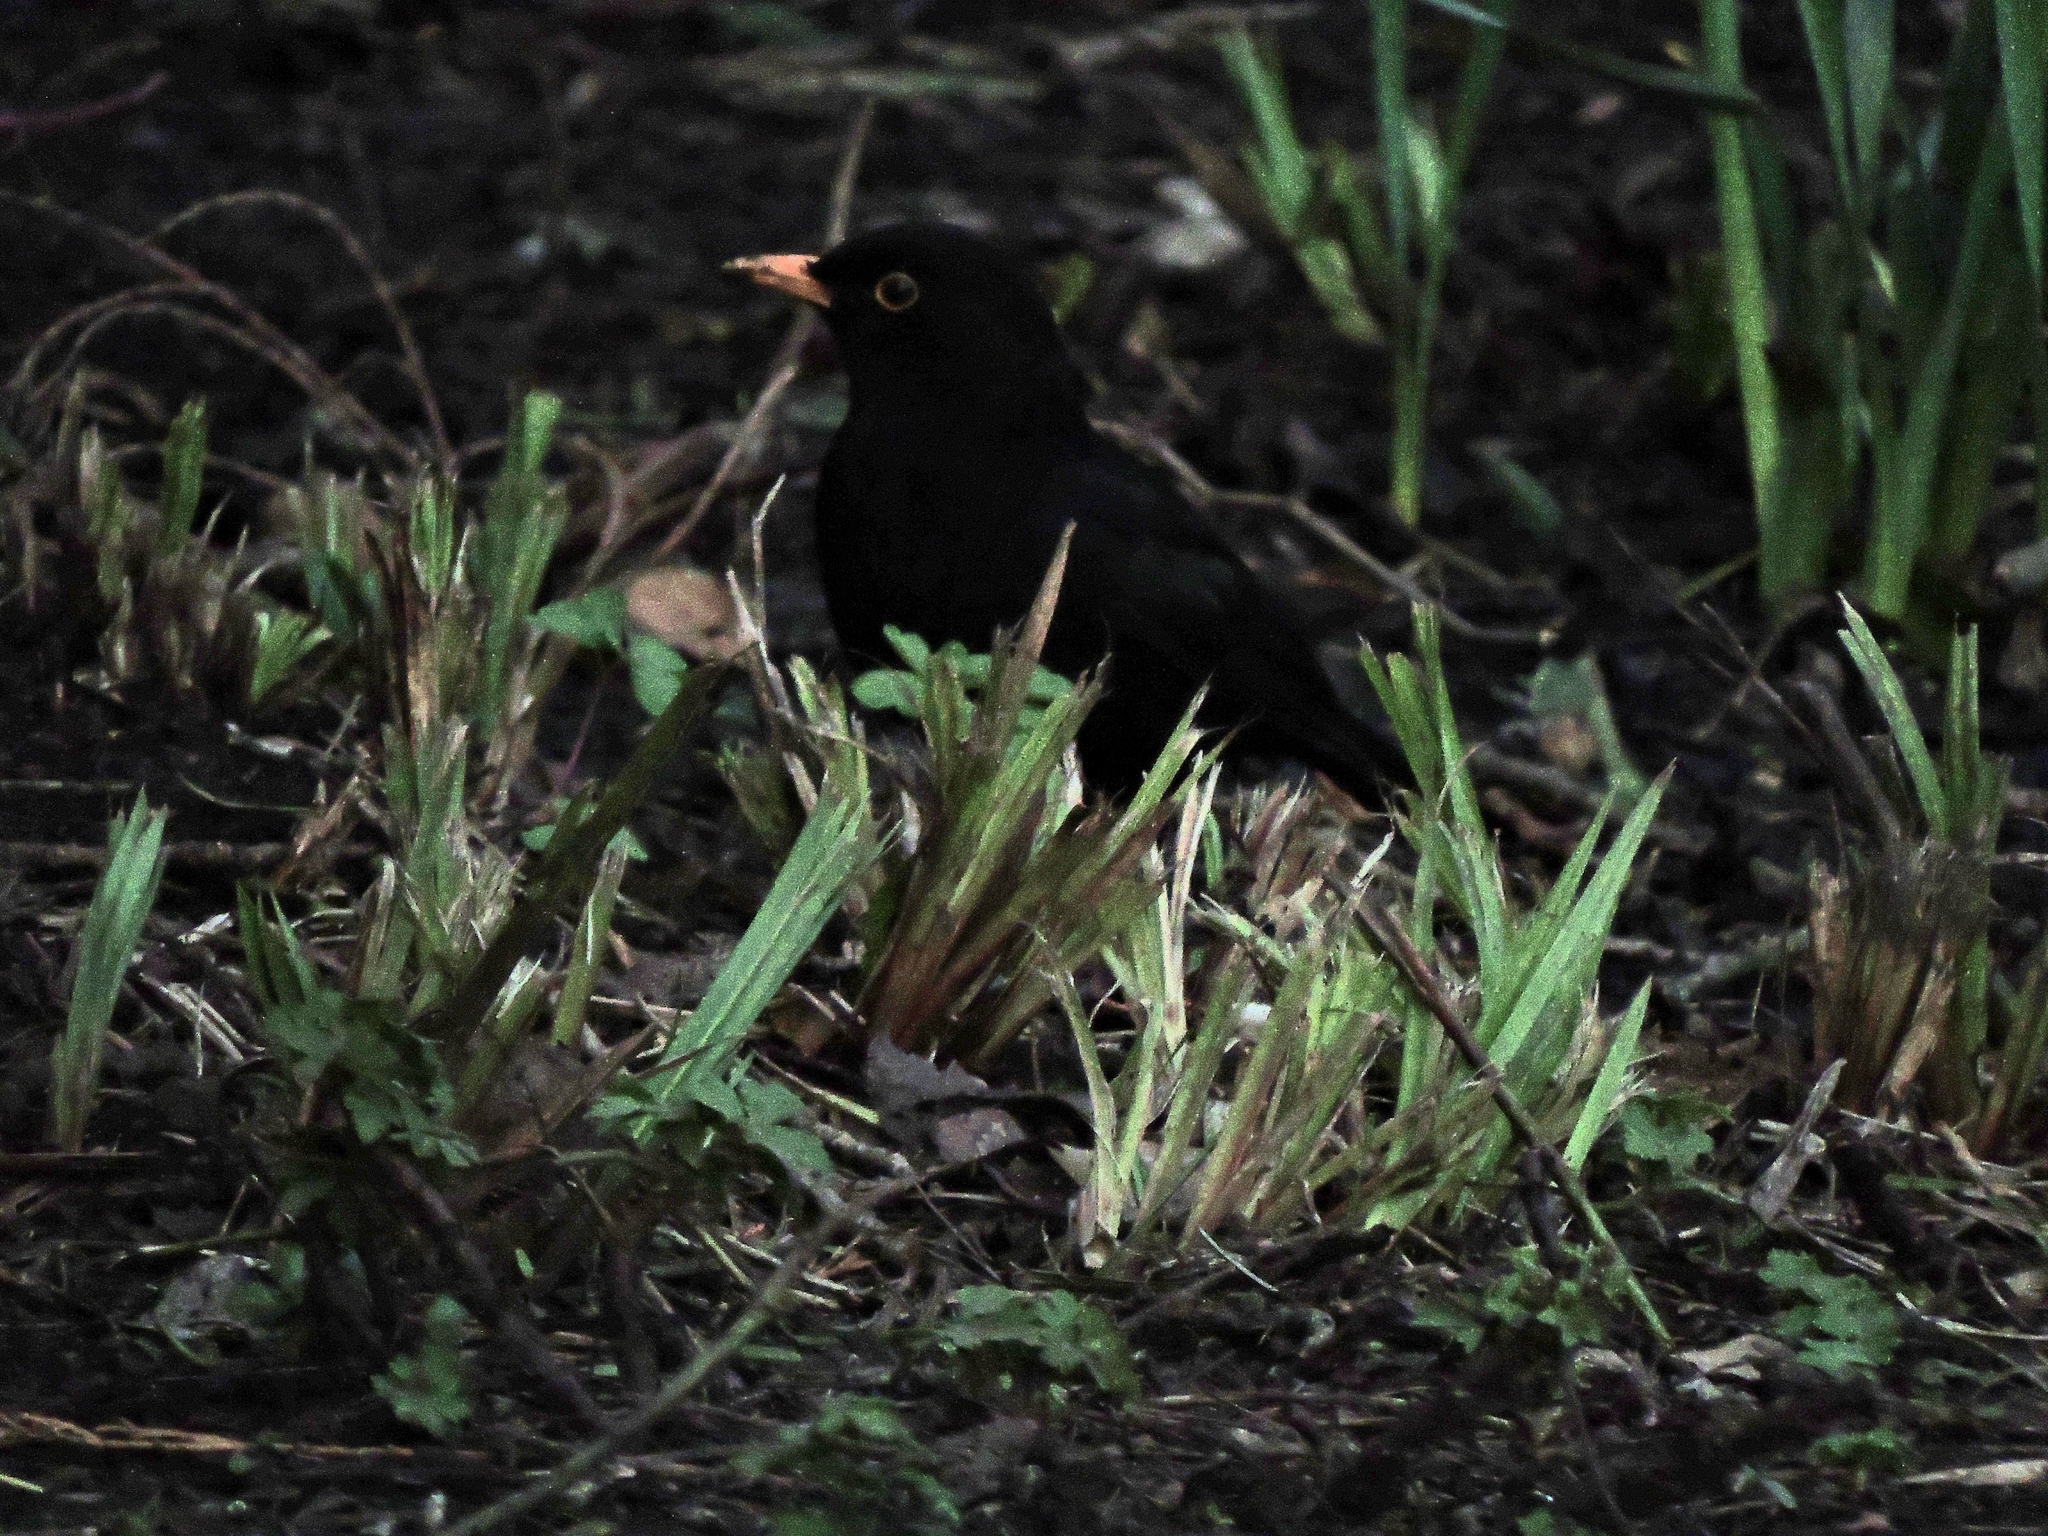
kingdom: Animalia
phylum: Chordata
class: Aves
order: Passeriformes
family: Turdidae
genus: Turdus
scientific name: Turdus merula
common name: Common blackbird
